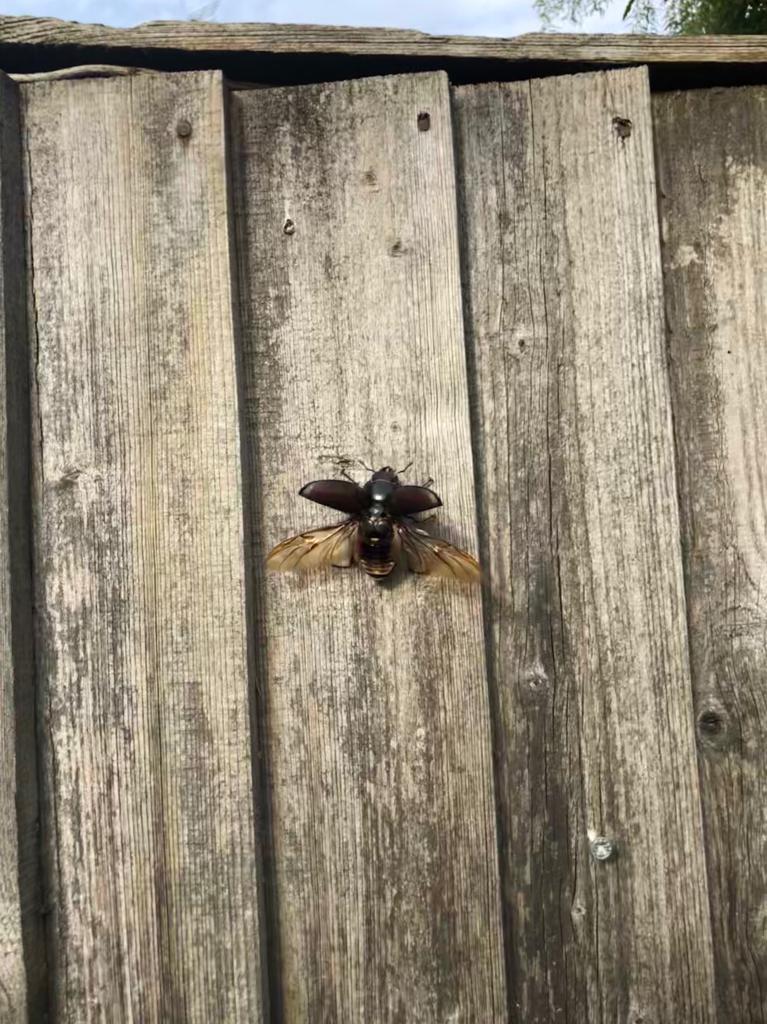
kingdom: Animalia
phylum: Arthropoda
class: Insecta
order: Coleoptera
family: Lucanidae
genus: Lucanus
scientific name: Lucanus cervus
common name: Stag beetle
